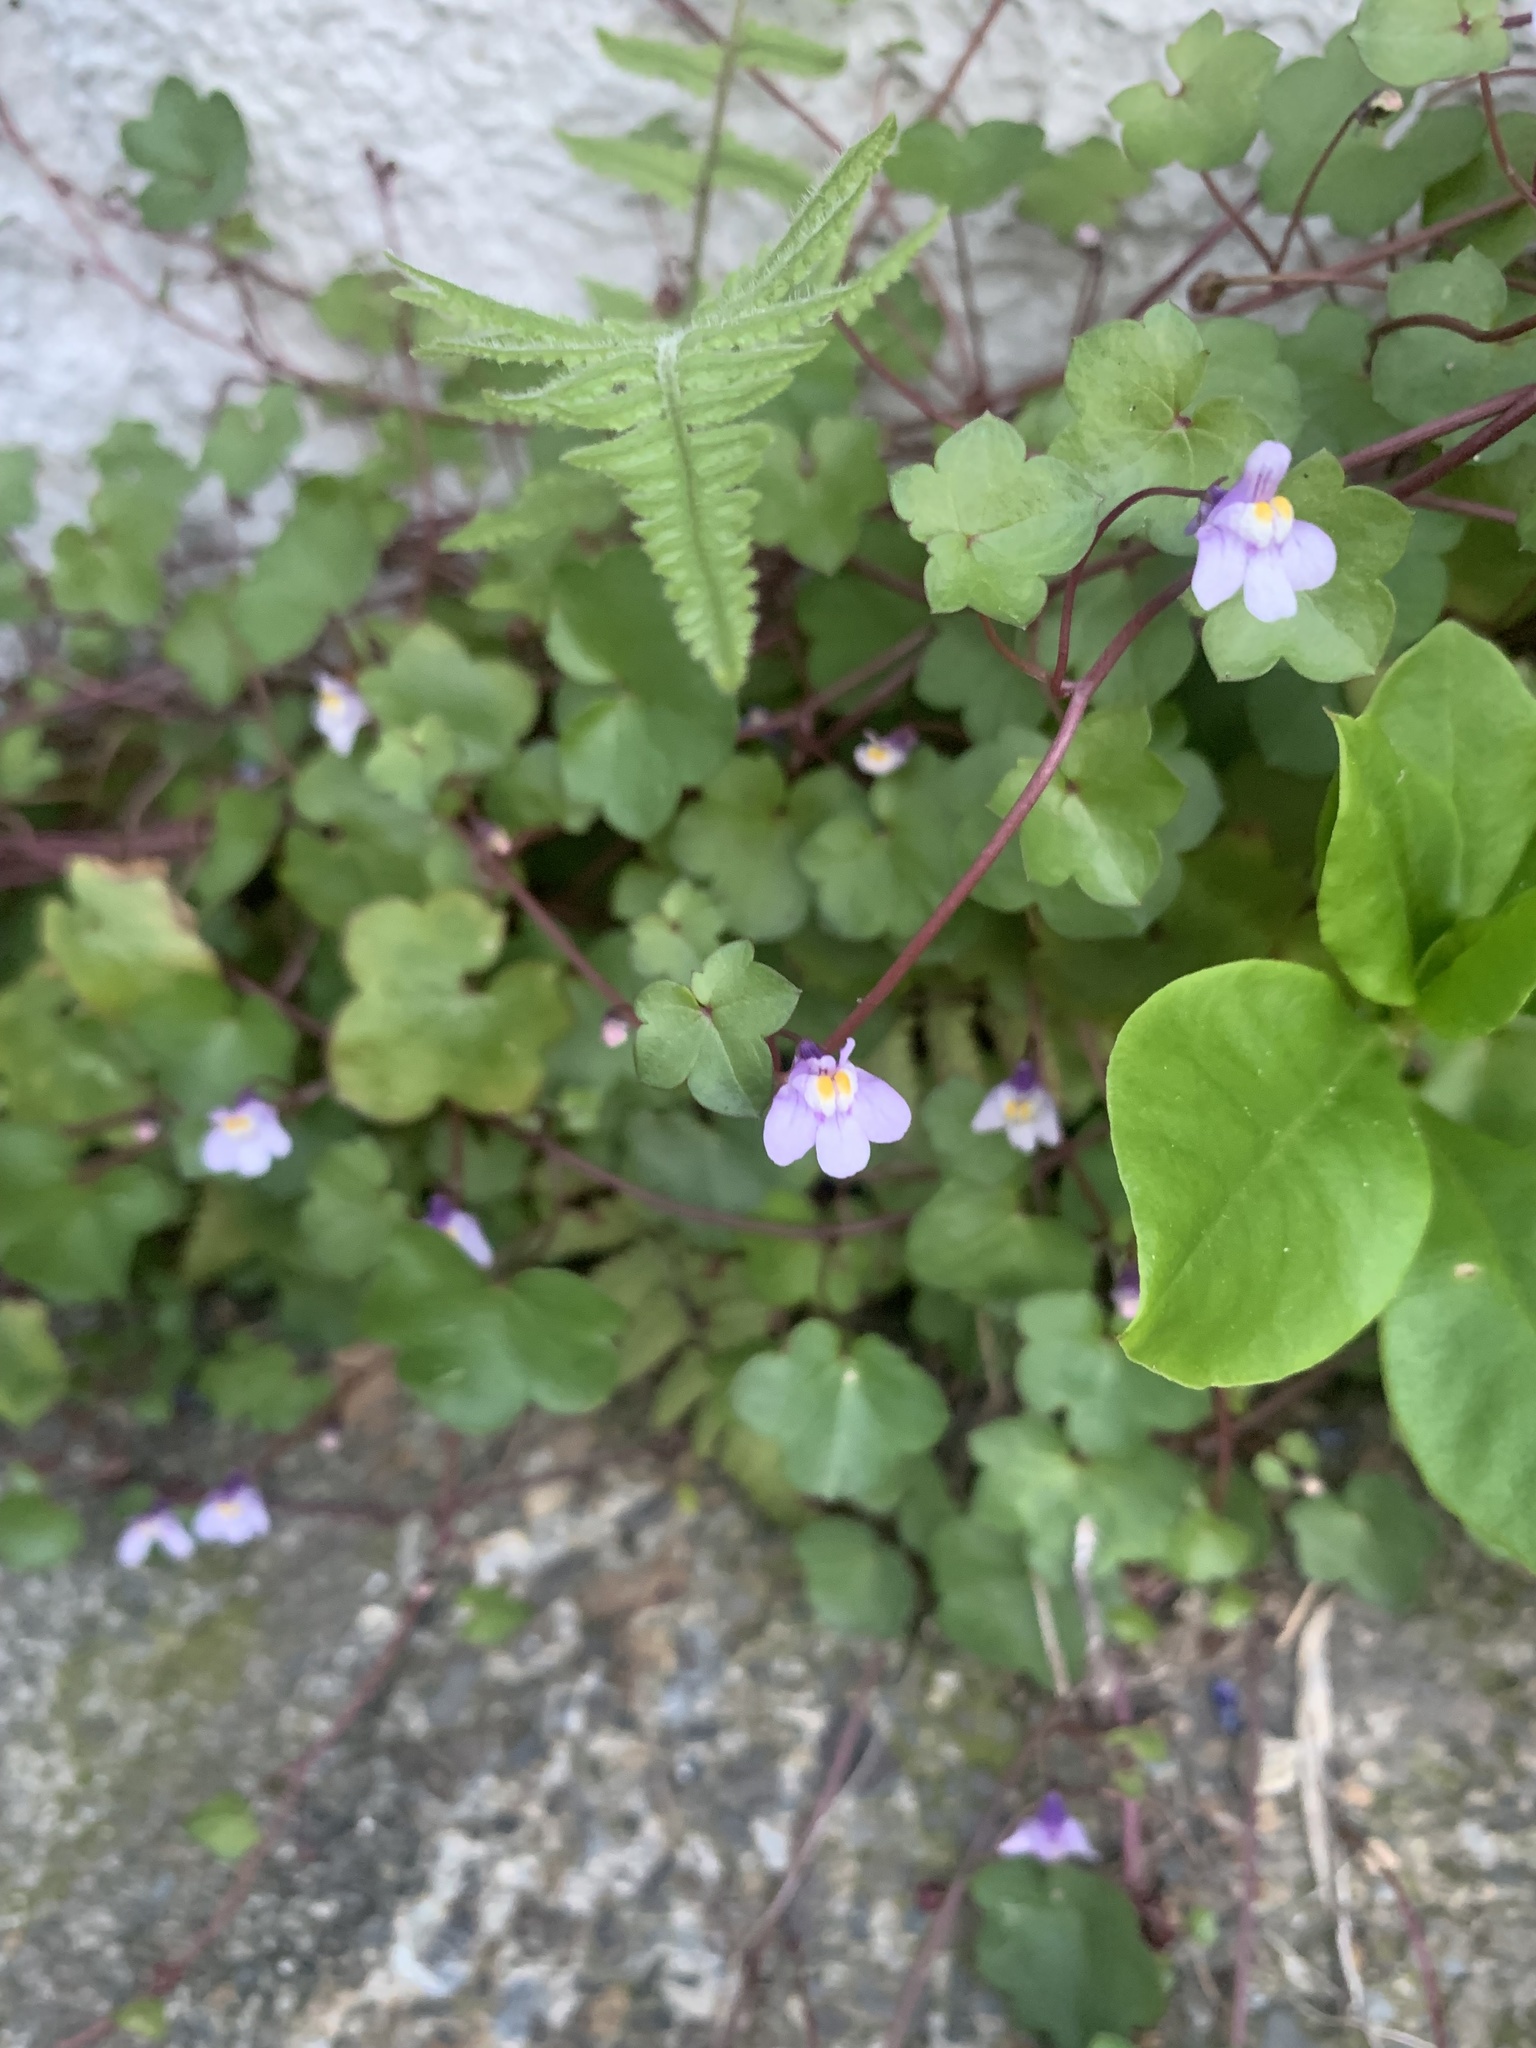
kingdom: Plantae
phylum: Tracheophyta
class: Magnoliopsida
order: Lamiales
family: Plantaginaceae
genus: Cymbalaria
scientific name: Cymbalaria muralis
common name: Ivy-leaved toadflax
